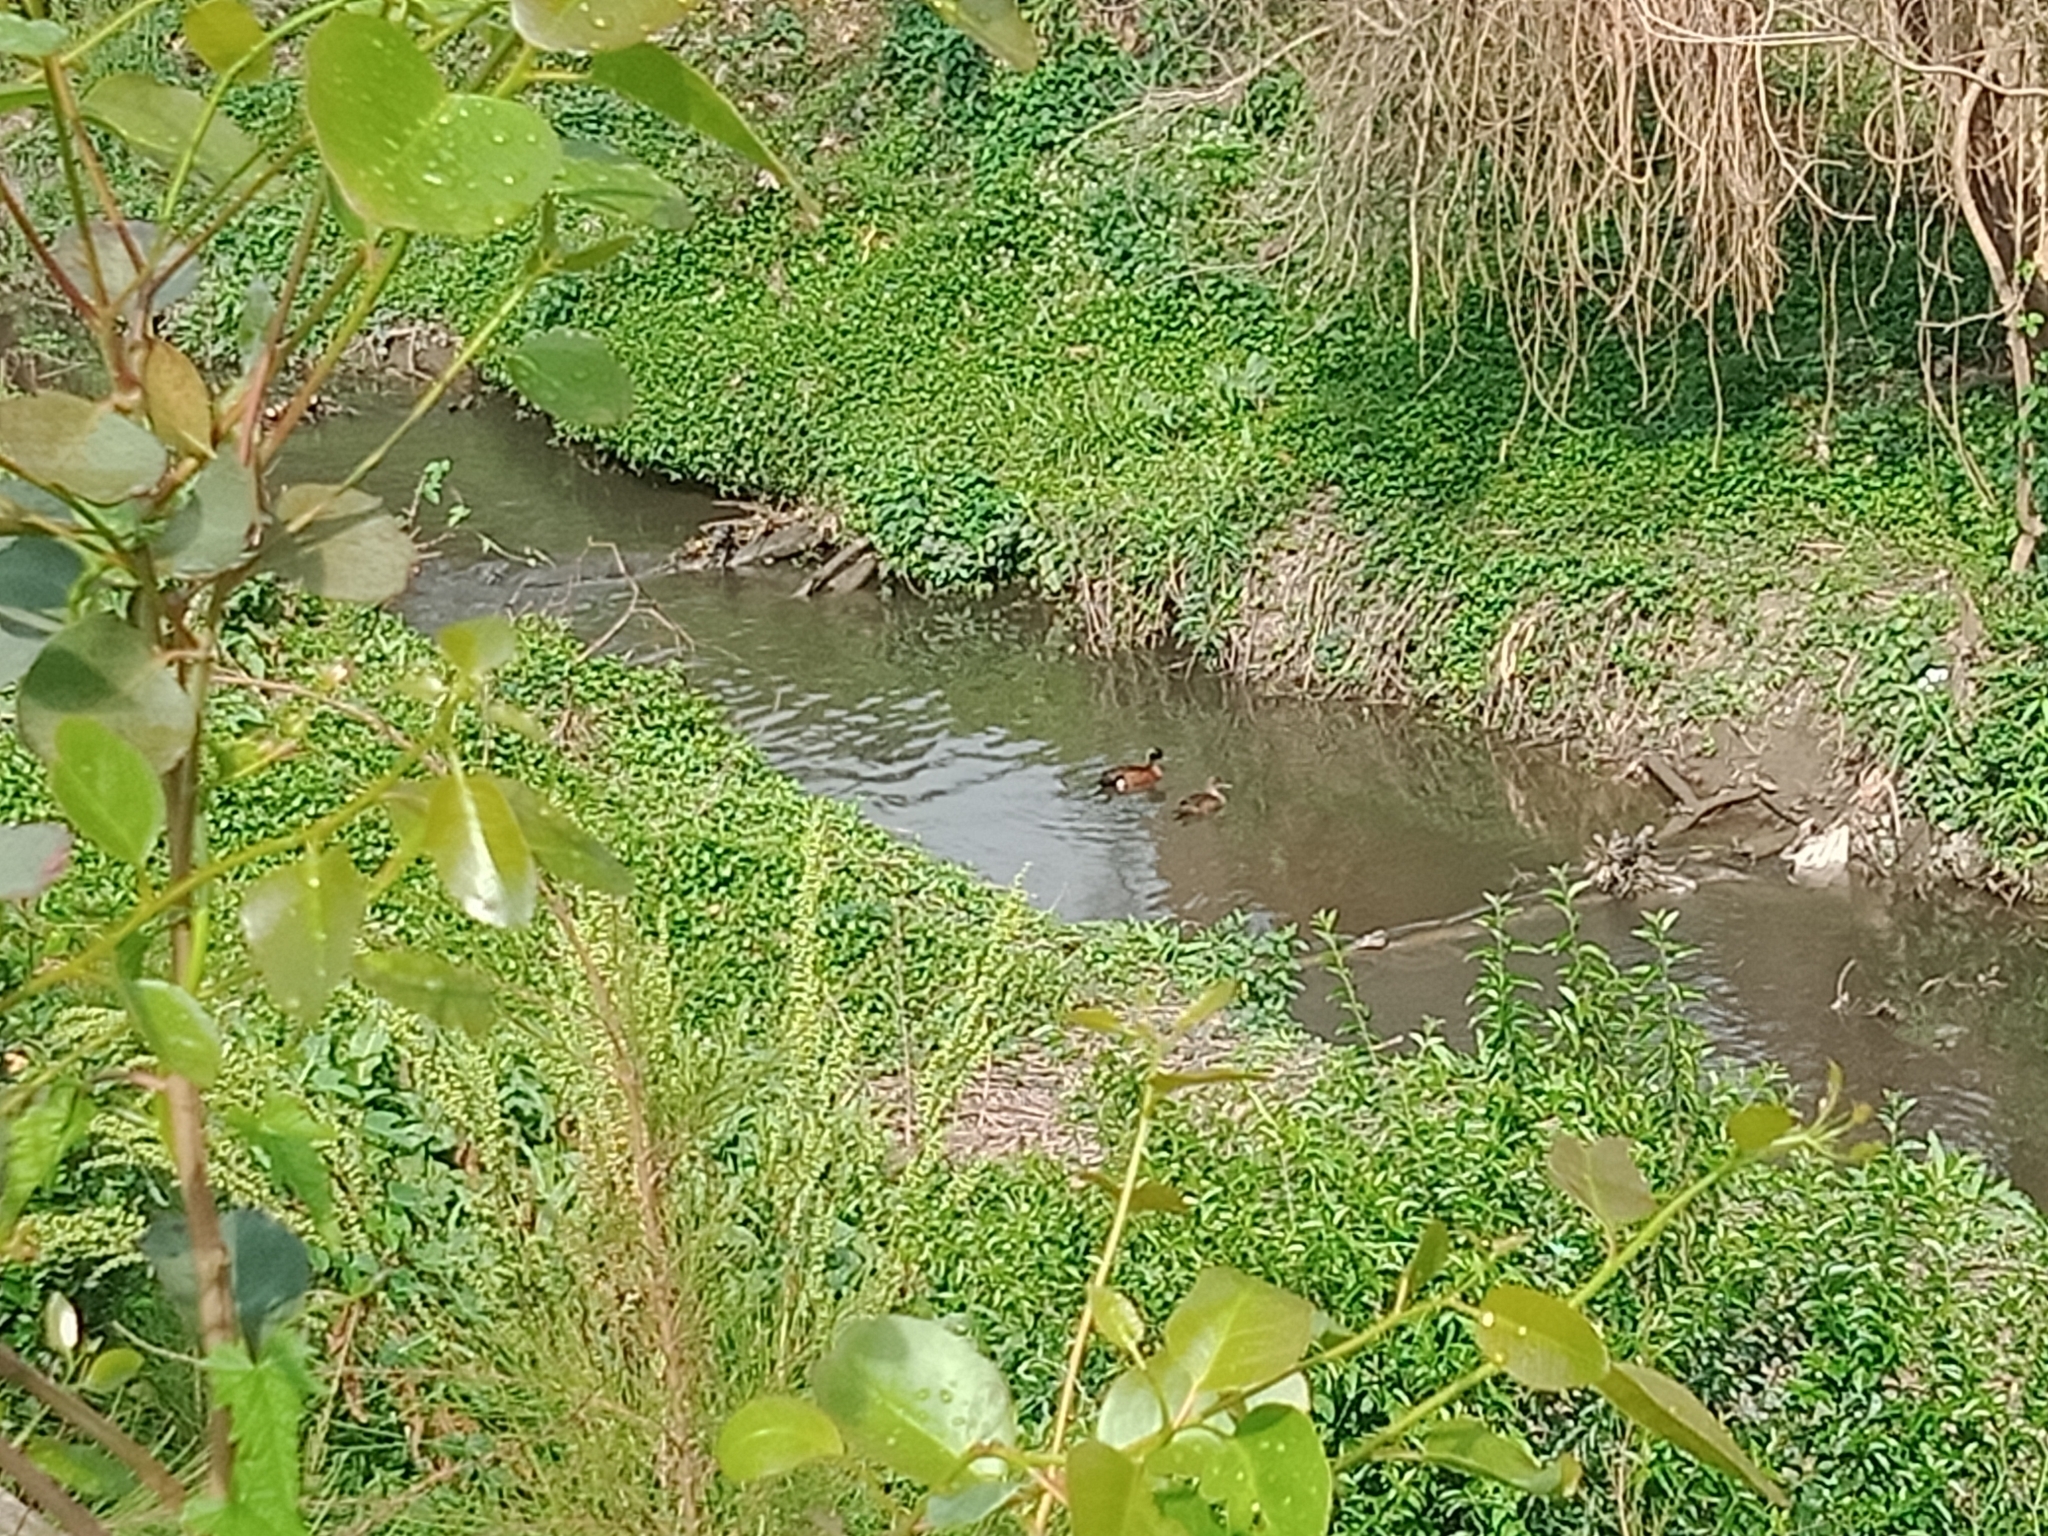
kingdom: Animalia
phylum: Chordata
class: Aves
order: Anseriformes
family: Anatidae
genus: Anas
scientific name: Anas castanea
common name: Chestnut teal
